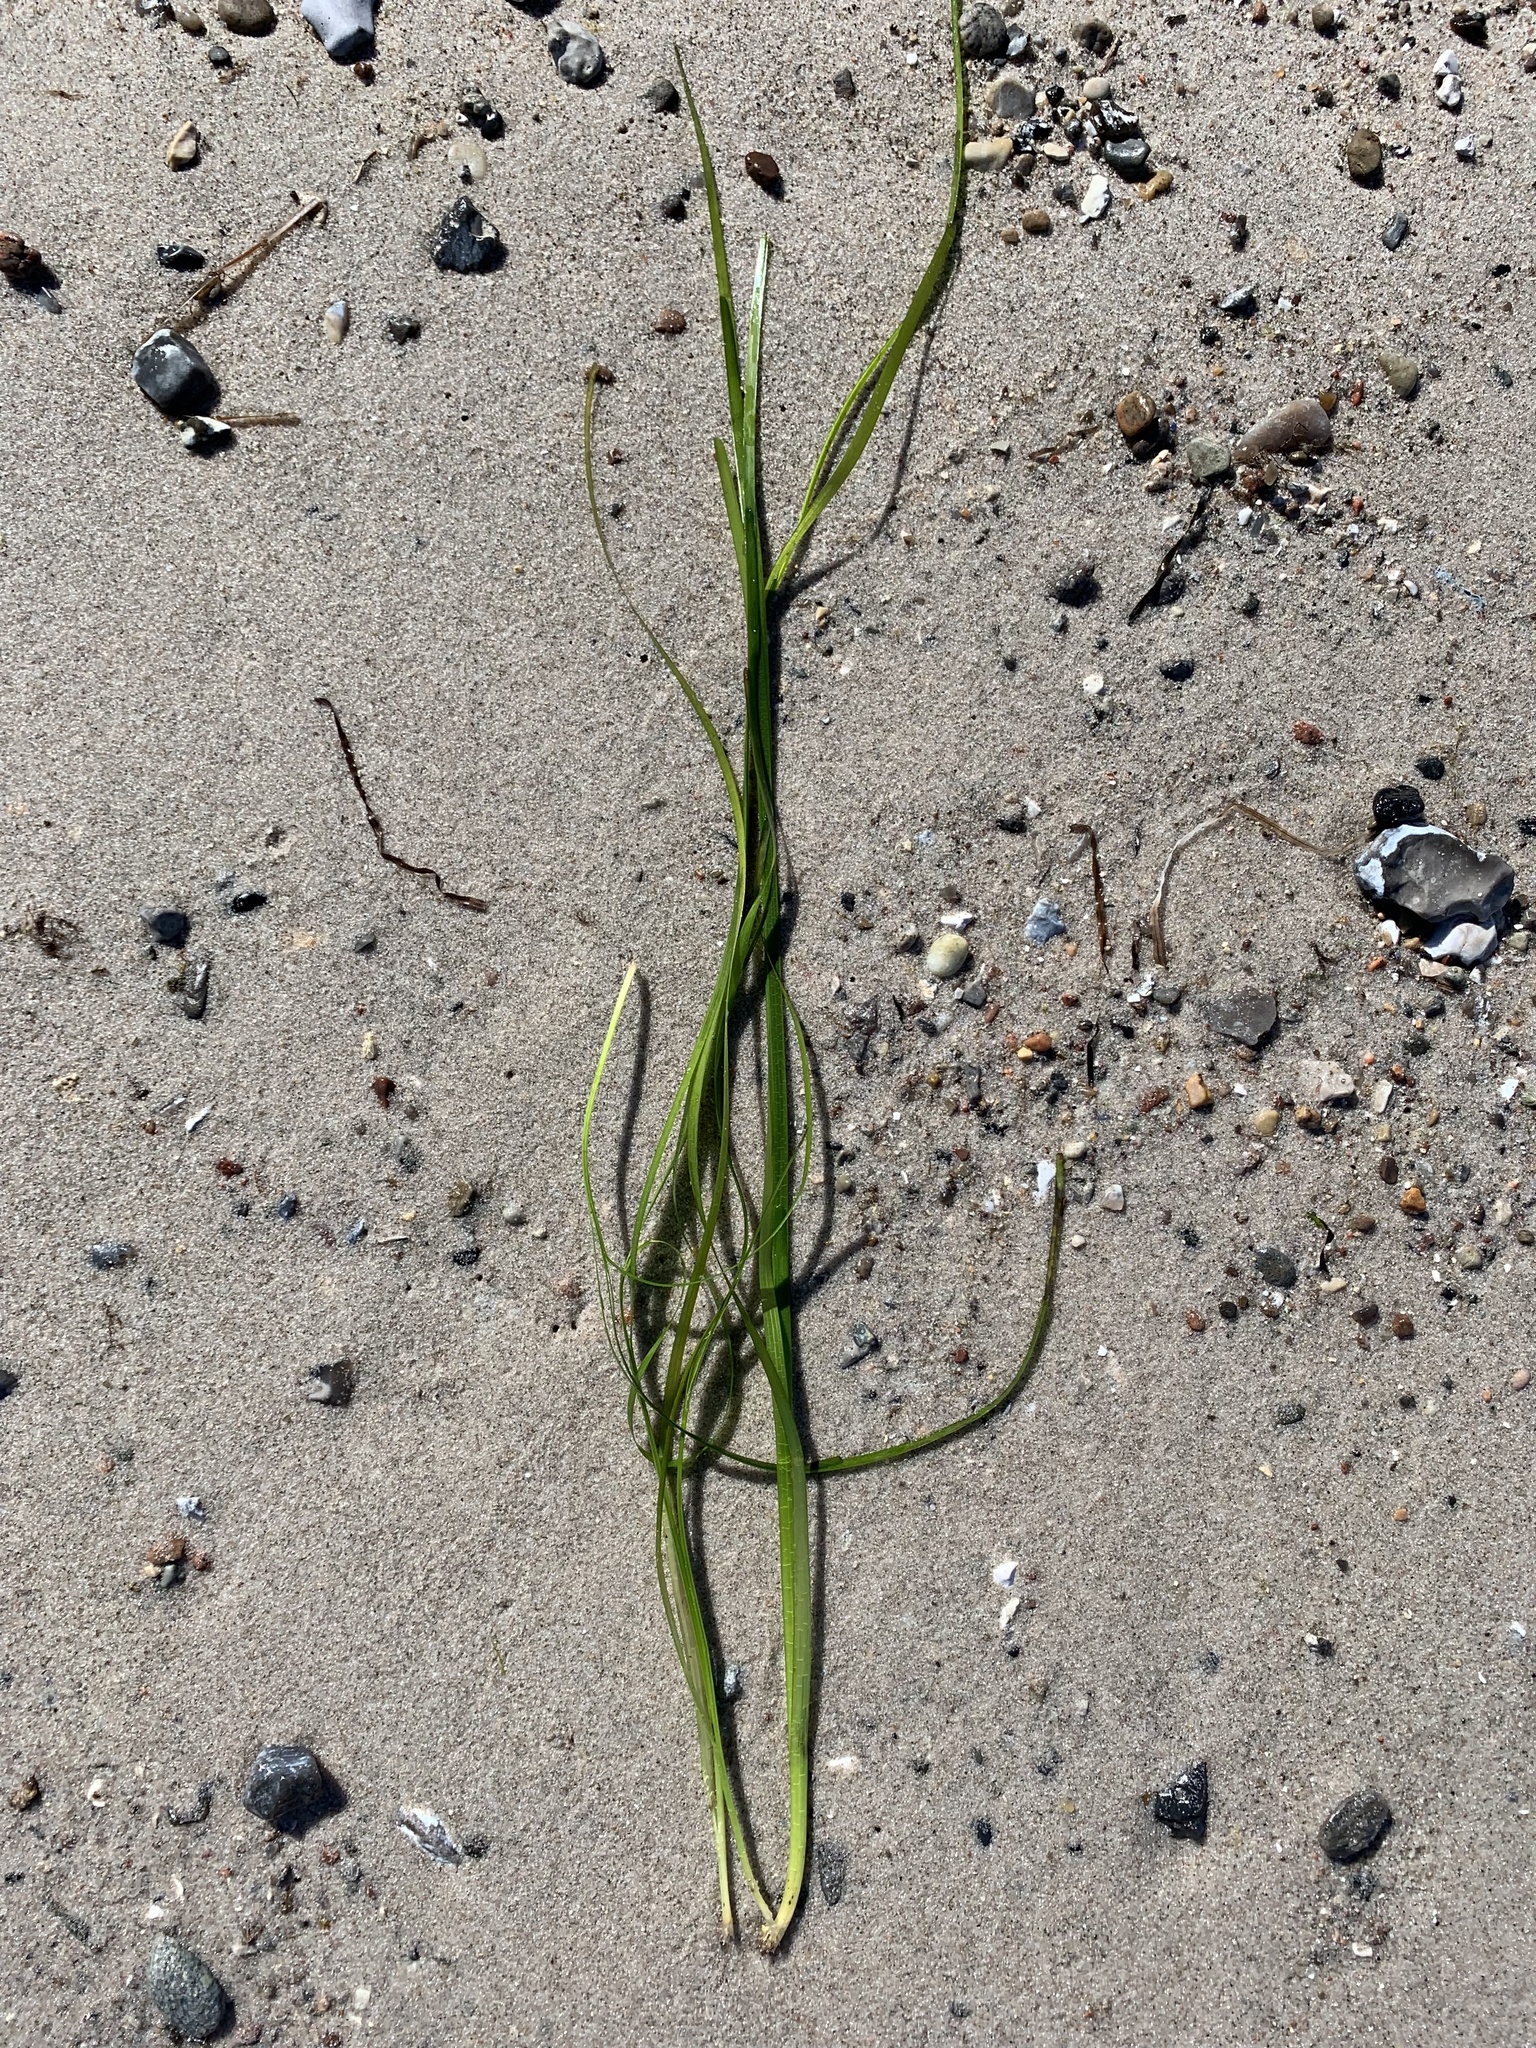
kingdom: Plantae
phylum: Tracheophyta
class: Liliopsida
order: Alismatales
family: Zosteraceae
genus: Zostera
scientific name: Zostera marina
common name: Eelgrass
